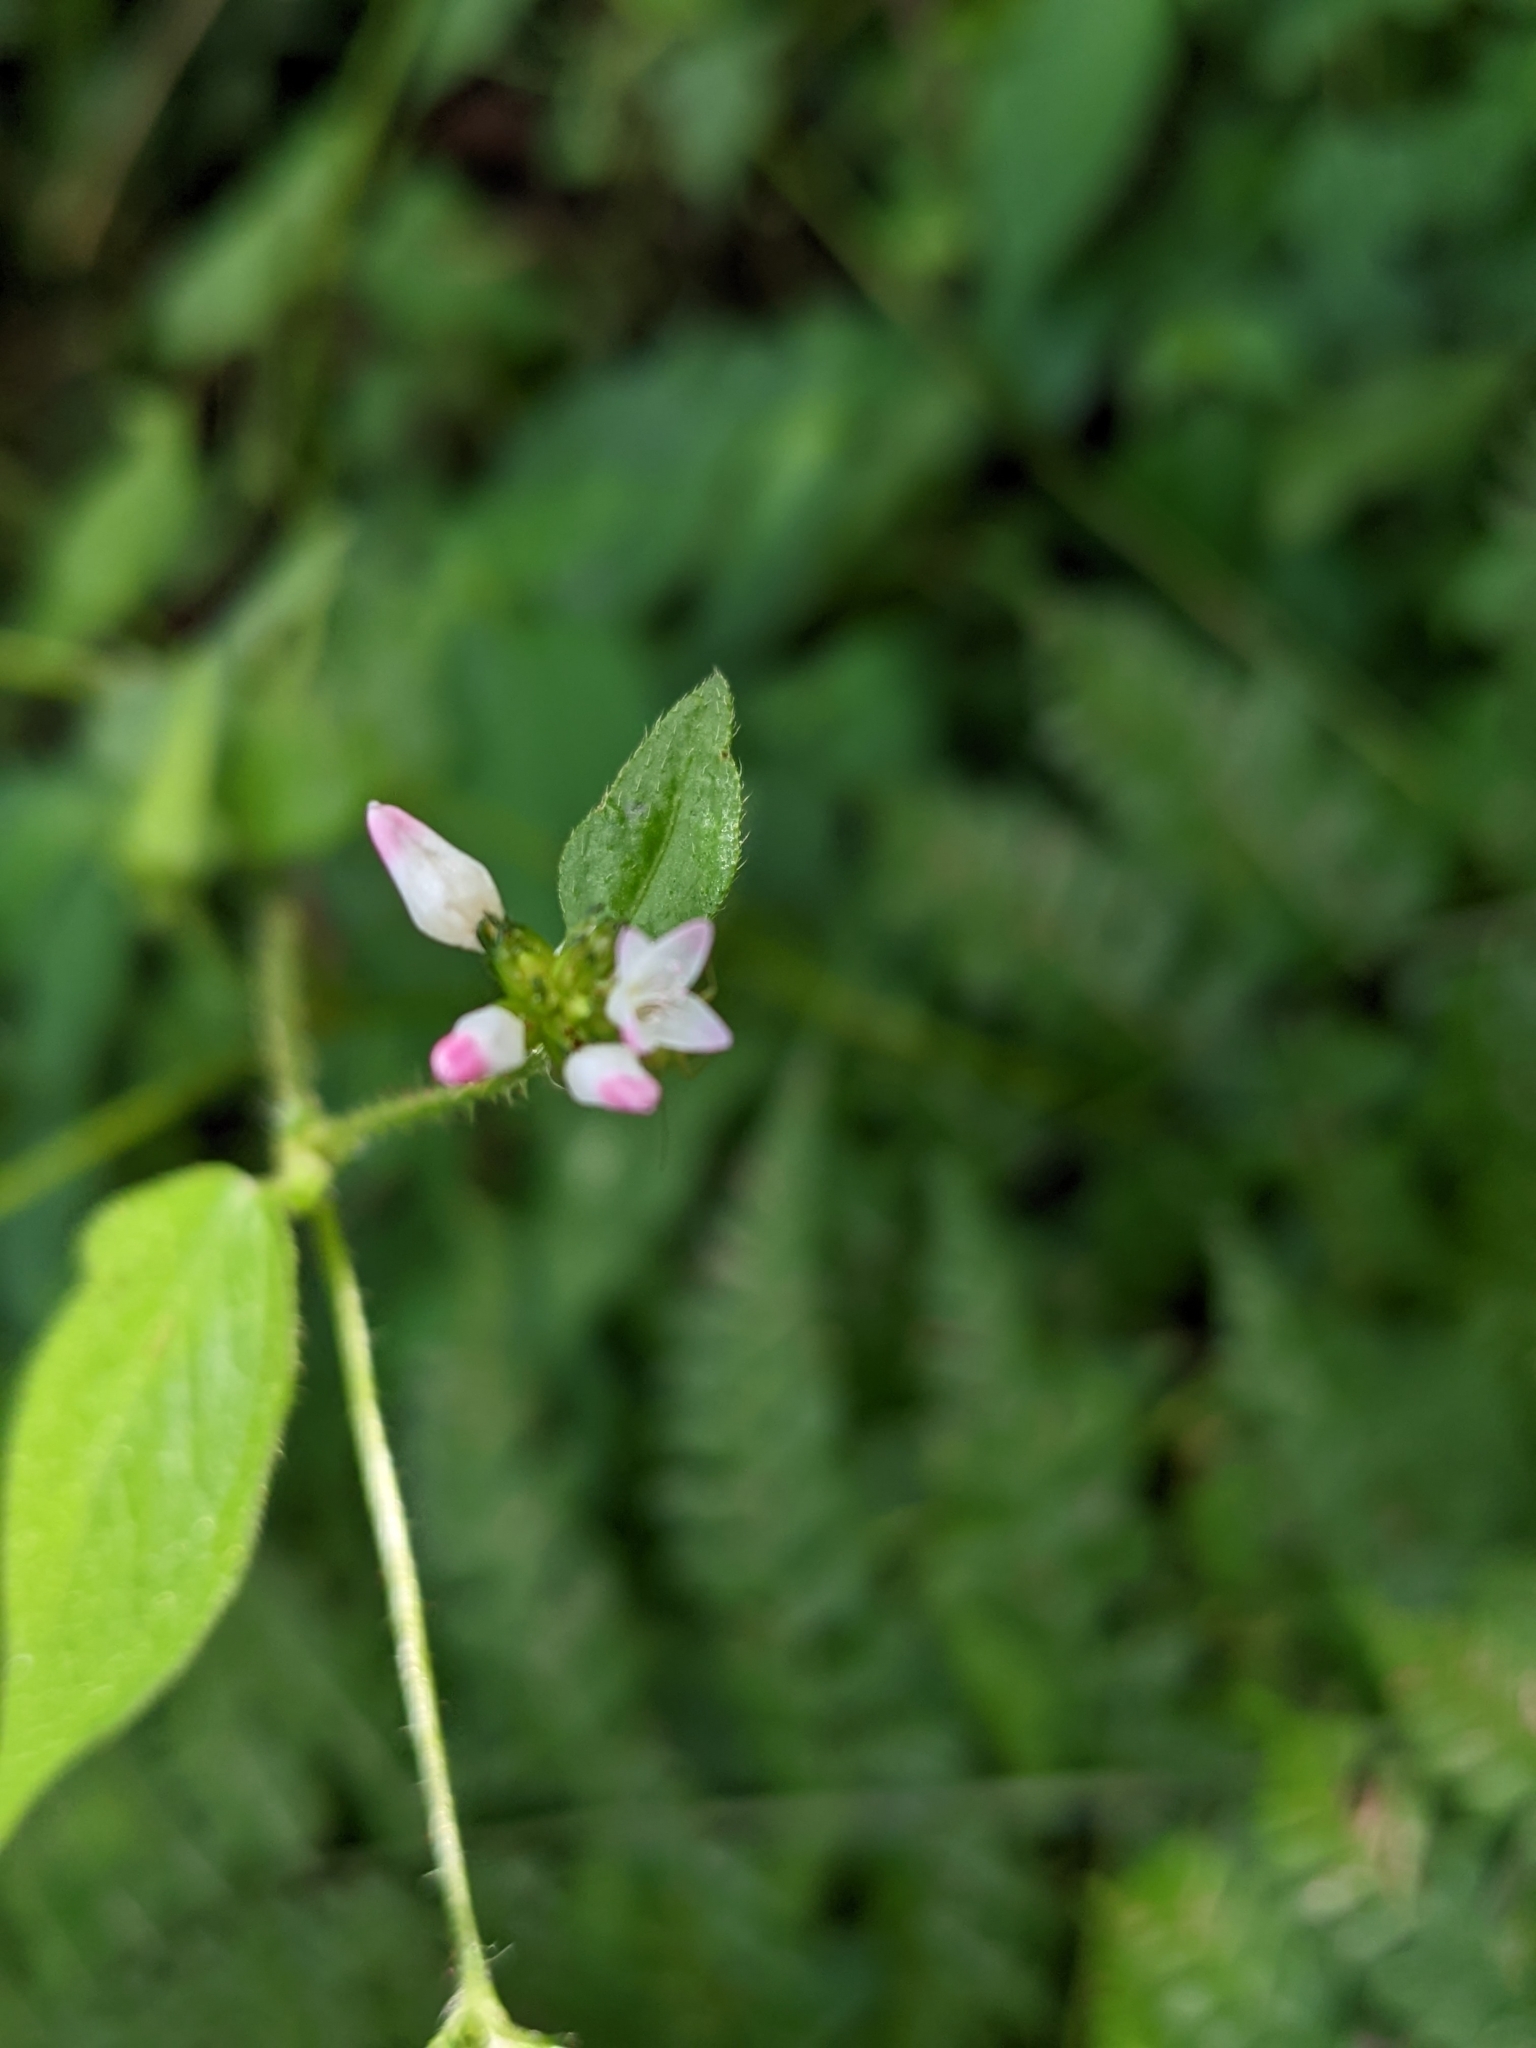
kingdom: Plantae
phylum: Tracheophyta
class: Magnoliopsida
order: Caryophyllales
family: Polygonaceae
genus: Persicaria
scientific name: Persicaria biconvexa
